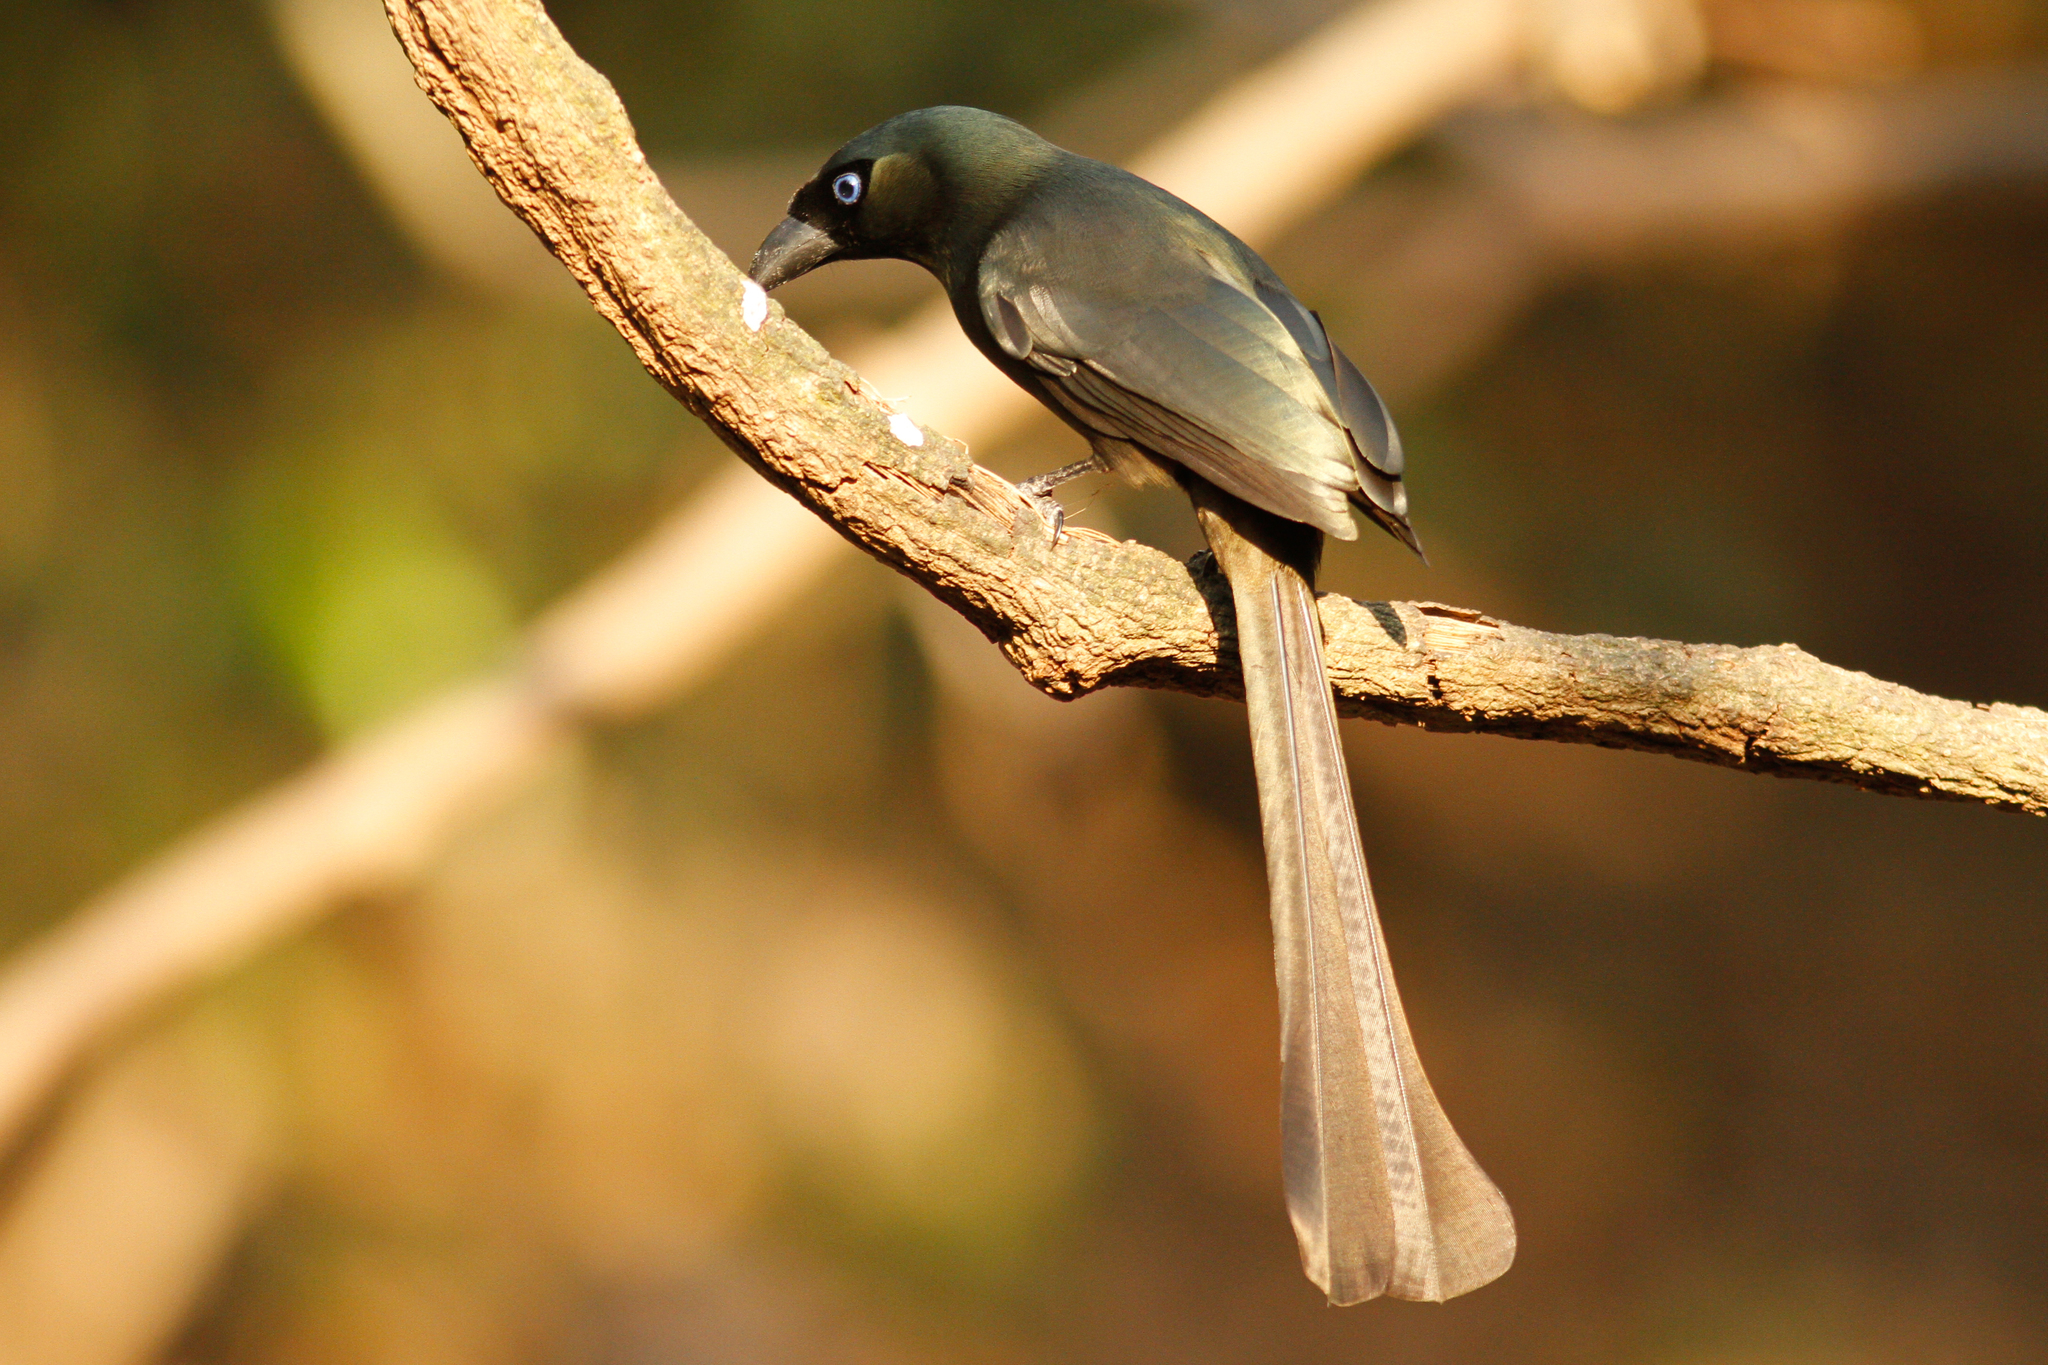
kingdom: Animalia
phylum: Chordata
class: Aves
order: Passeriformes
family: Corvidae
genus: Crypsirina
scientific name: Crypsirina temia
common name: Racket-tailed treepie
